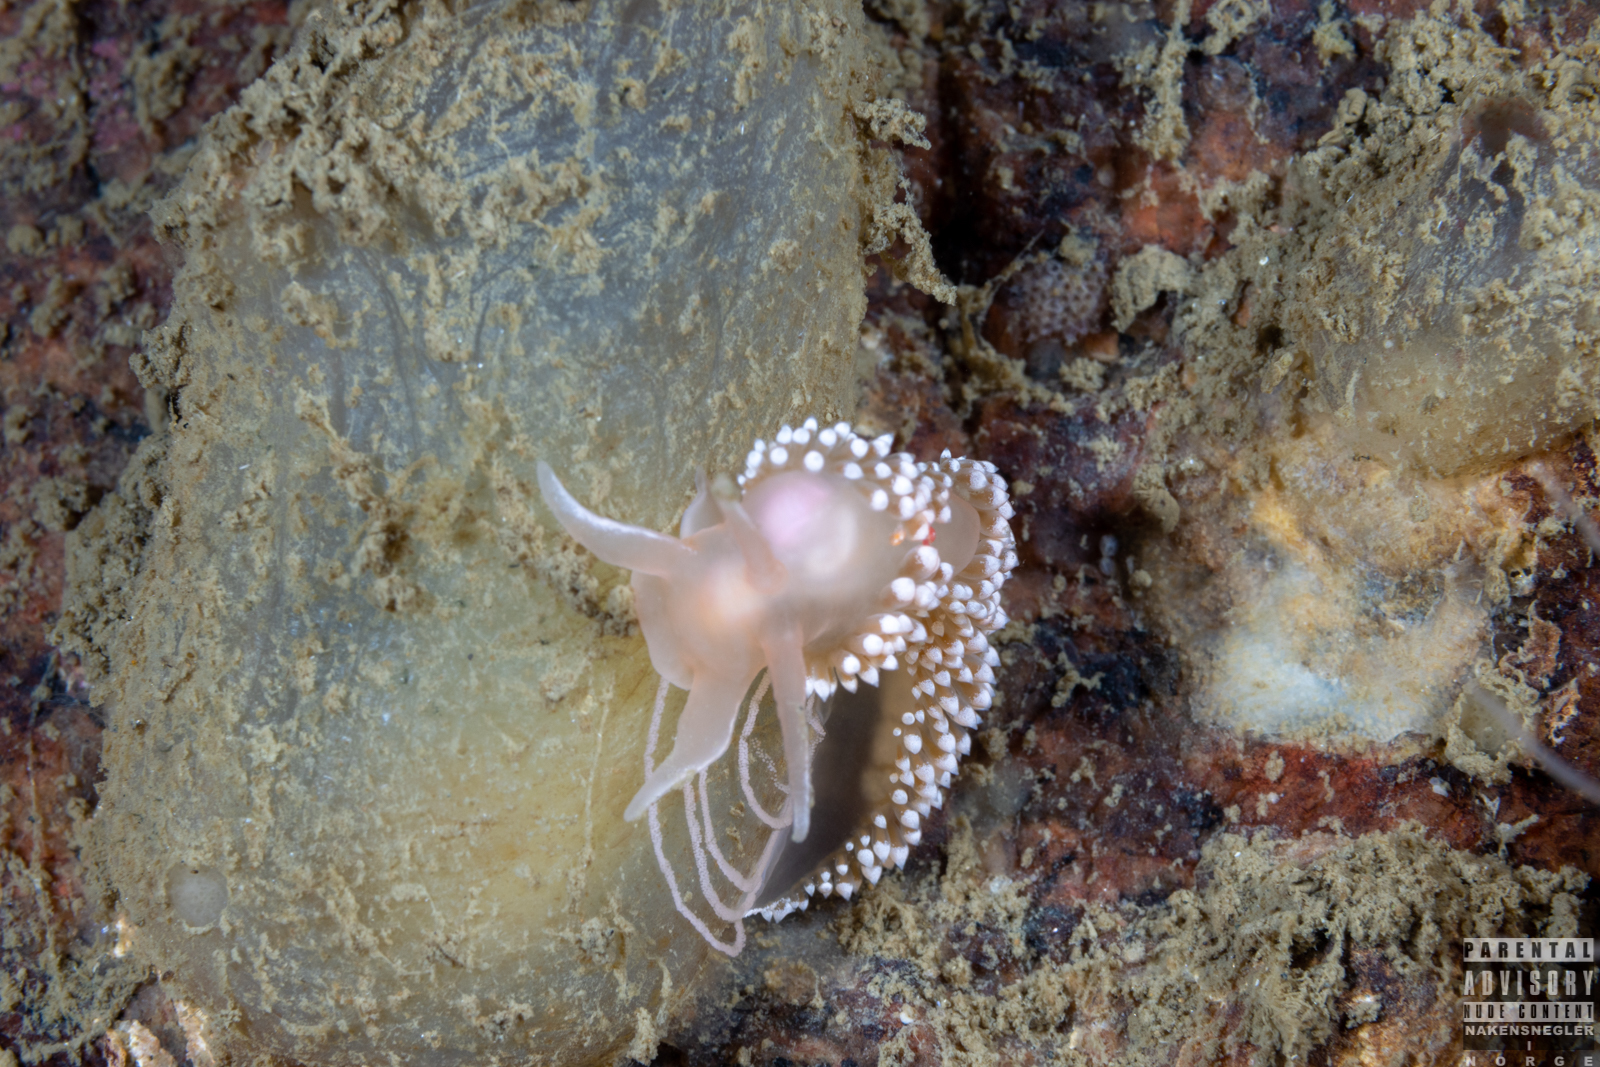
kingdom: Animalia
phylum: Mollusca
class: Gastropoda
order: Nudibranchia
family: Coryphellidae
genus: Coryphella
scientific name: Coryphella verrucosa
